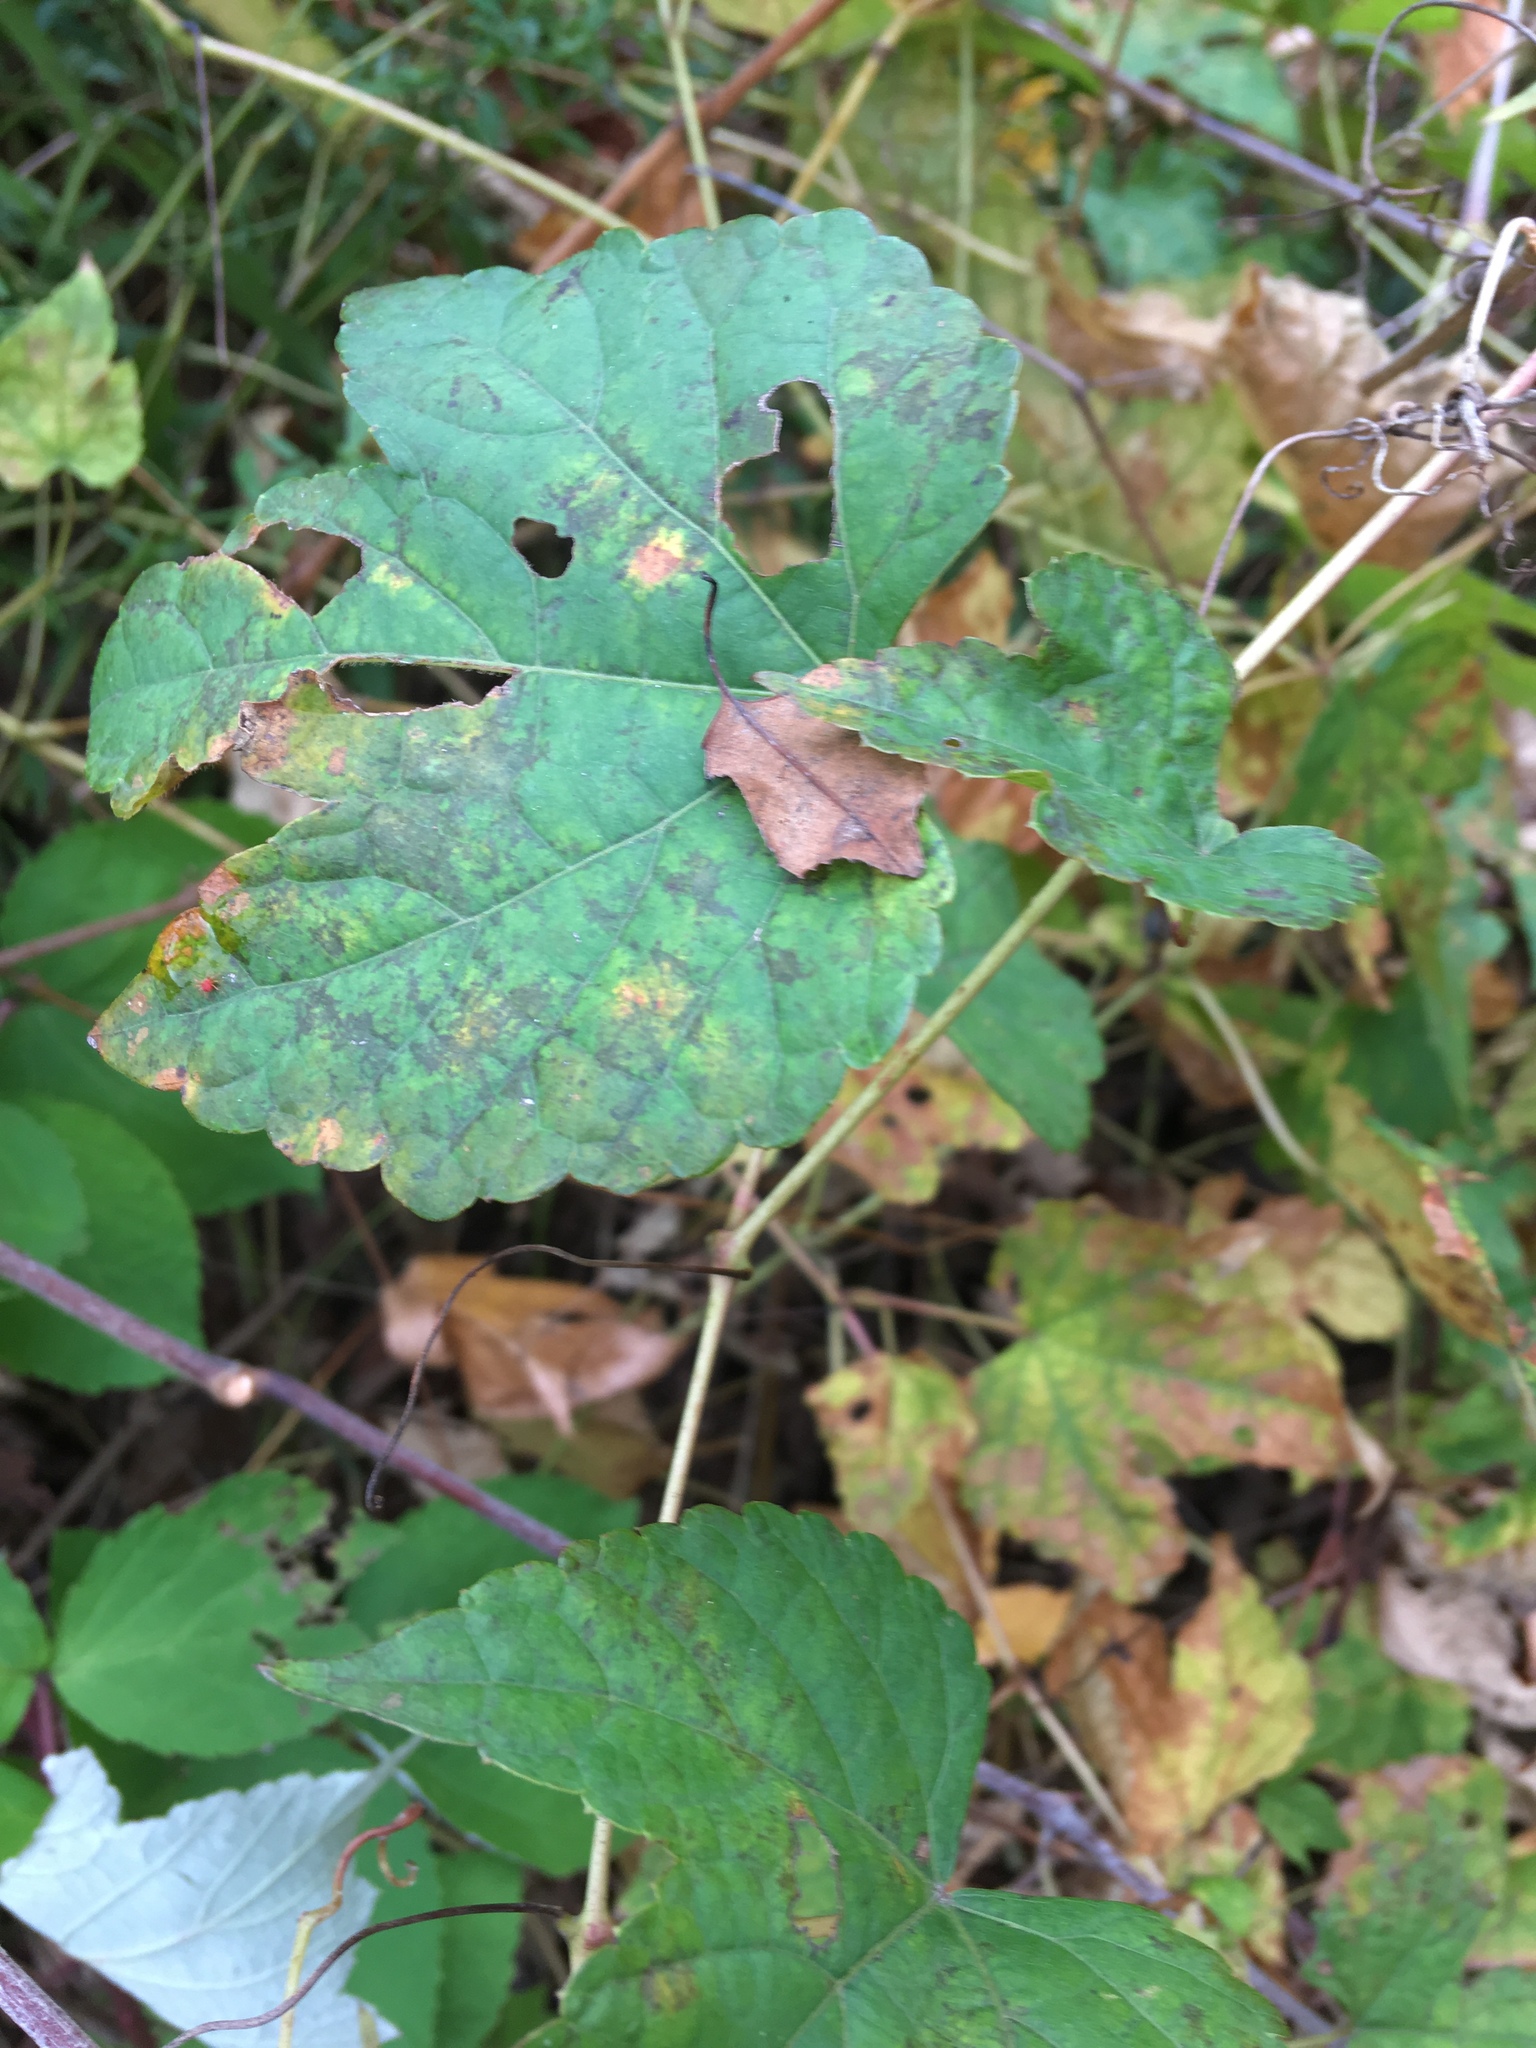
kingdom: Plantae
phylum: Tracheophyta
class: Magnoliopsida
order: Vitales
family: Vitaceae
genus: Ampelopsis
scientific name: Ampelopsis glandulosa
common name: Amur peppervine
